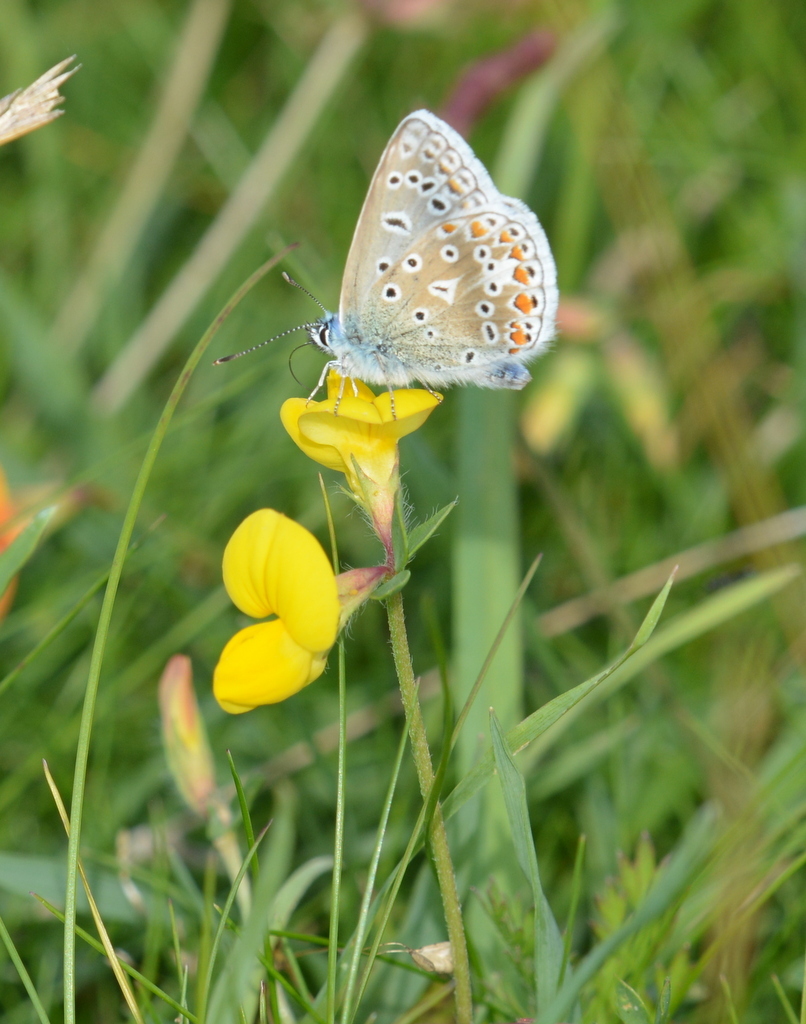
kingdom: Animalia
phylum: Arthropoda
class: Insecta
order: Lepidoptera
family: Lycaenidae
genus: Polyommatus
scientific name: Polyommatus icarus
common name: Common blue
